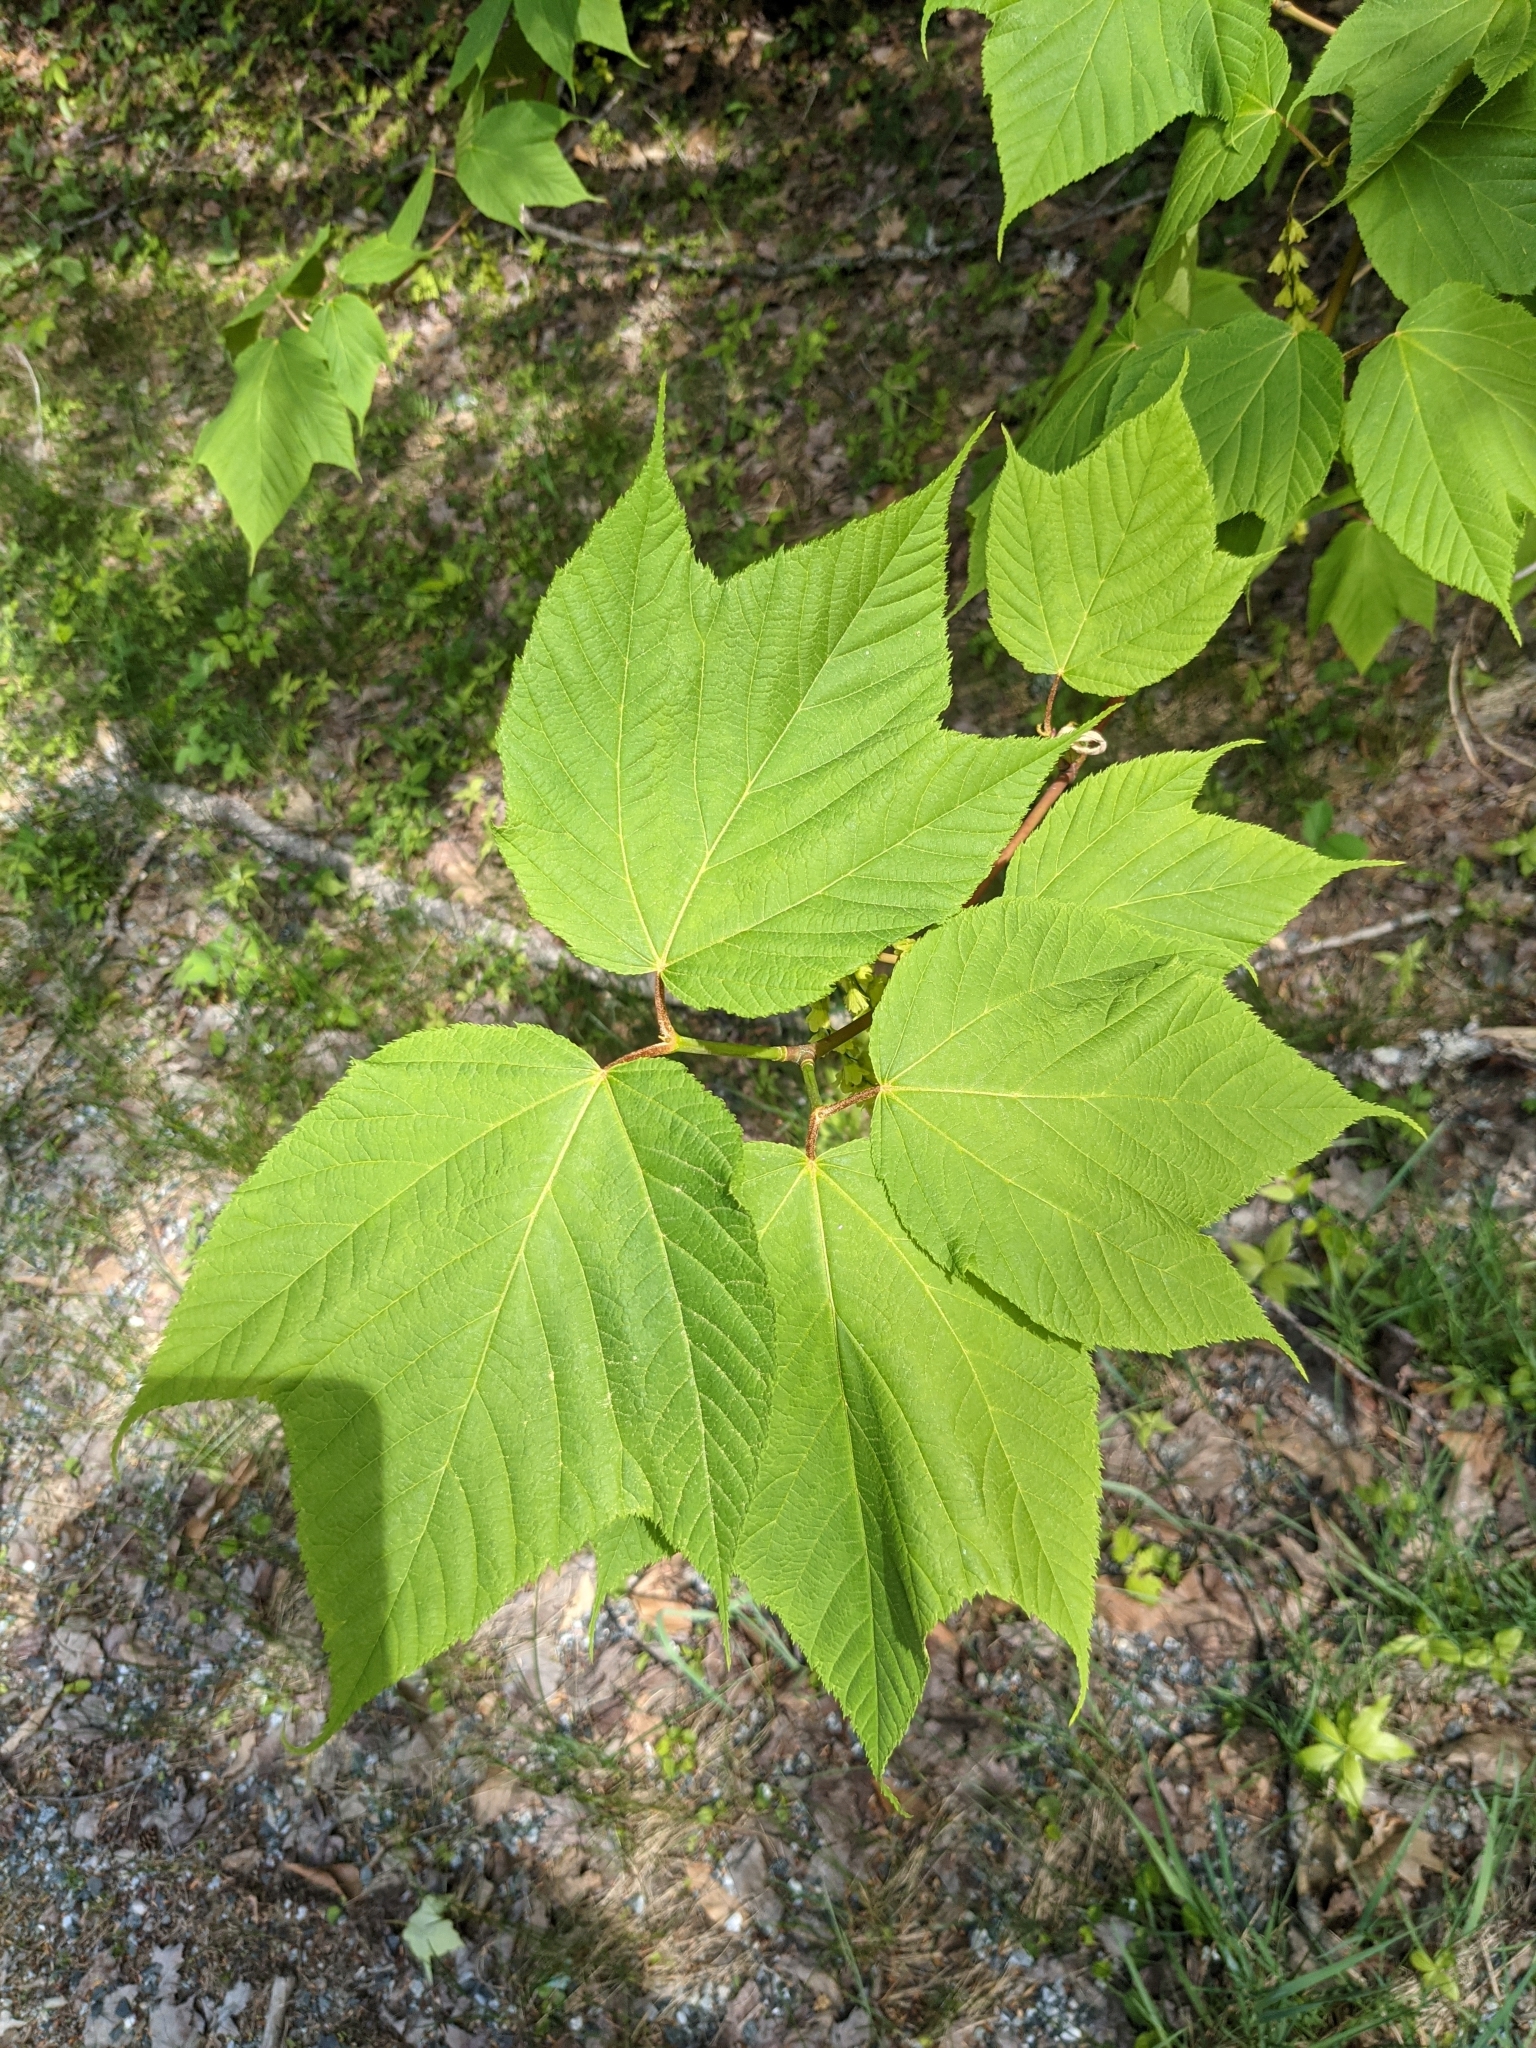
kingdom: Plantae
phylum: Tracheophyta
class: Magnoliopsida
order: Sapindales
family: Sapindaceae
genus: Acer
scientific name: Acer pensylvanicum
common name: Moosewood
